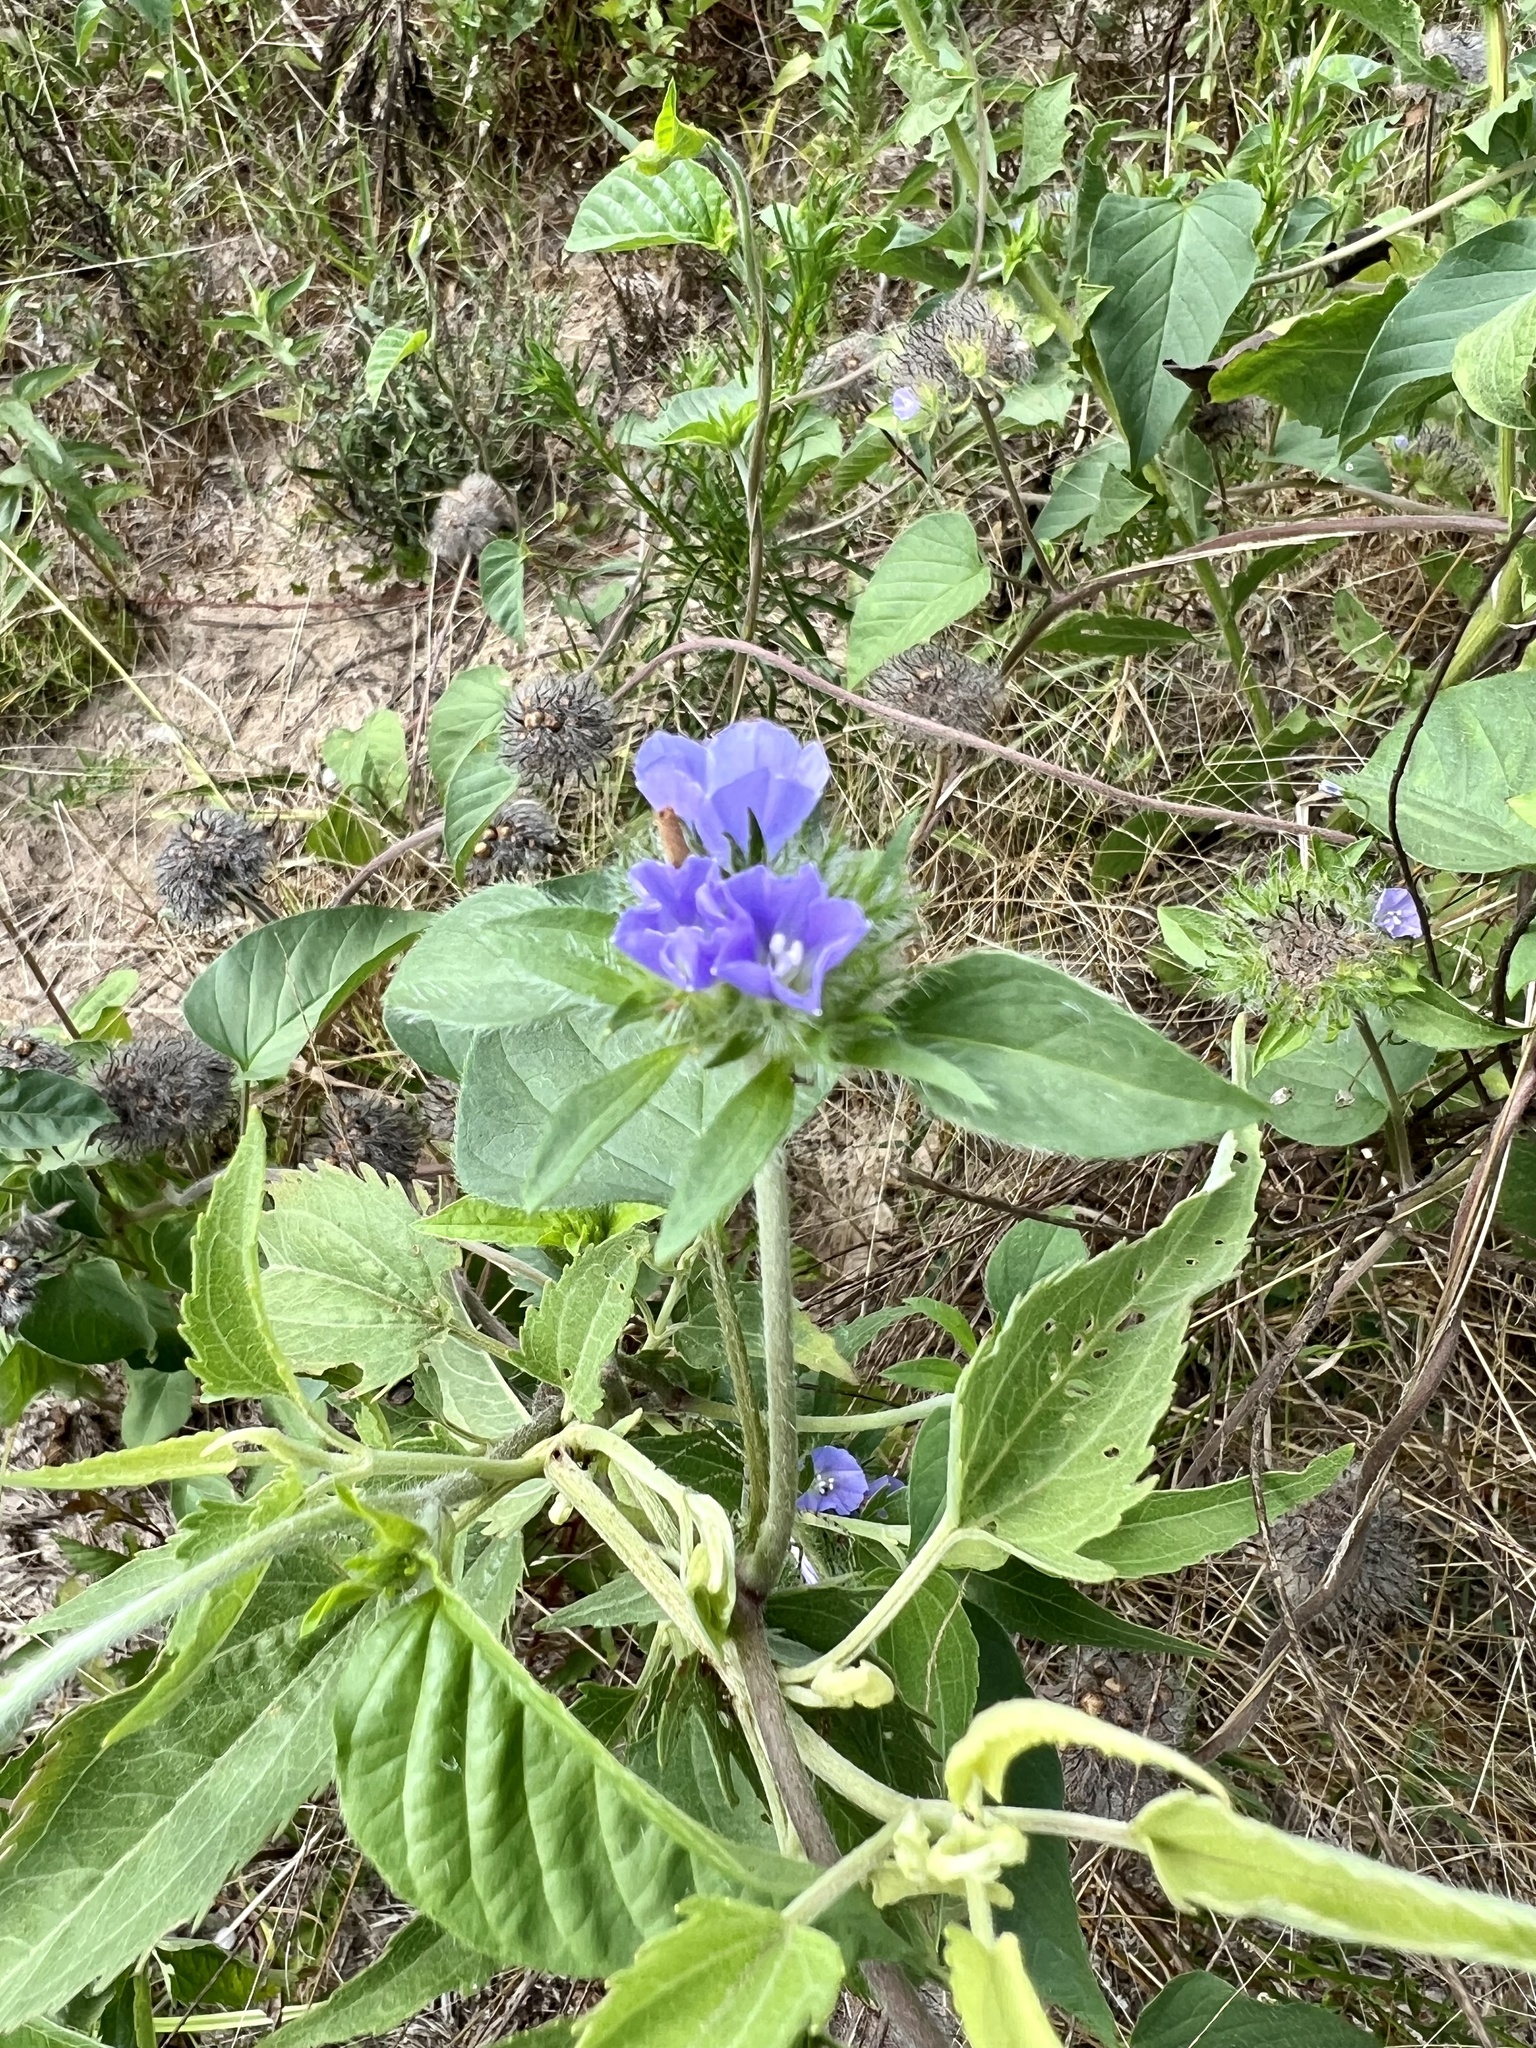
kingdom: Plantae
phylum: Tracheophyta
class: Magnoliopsida
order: Solanales
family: Convolvulaceae
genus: Jacquemontia
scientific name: Jacquemontia tamnifolia
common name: Hairy clustervine
